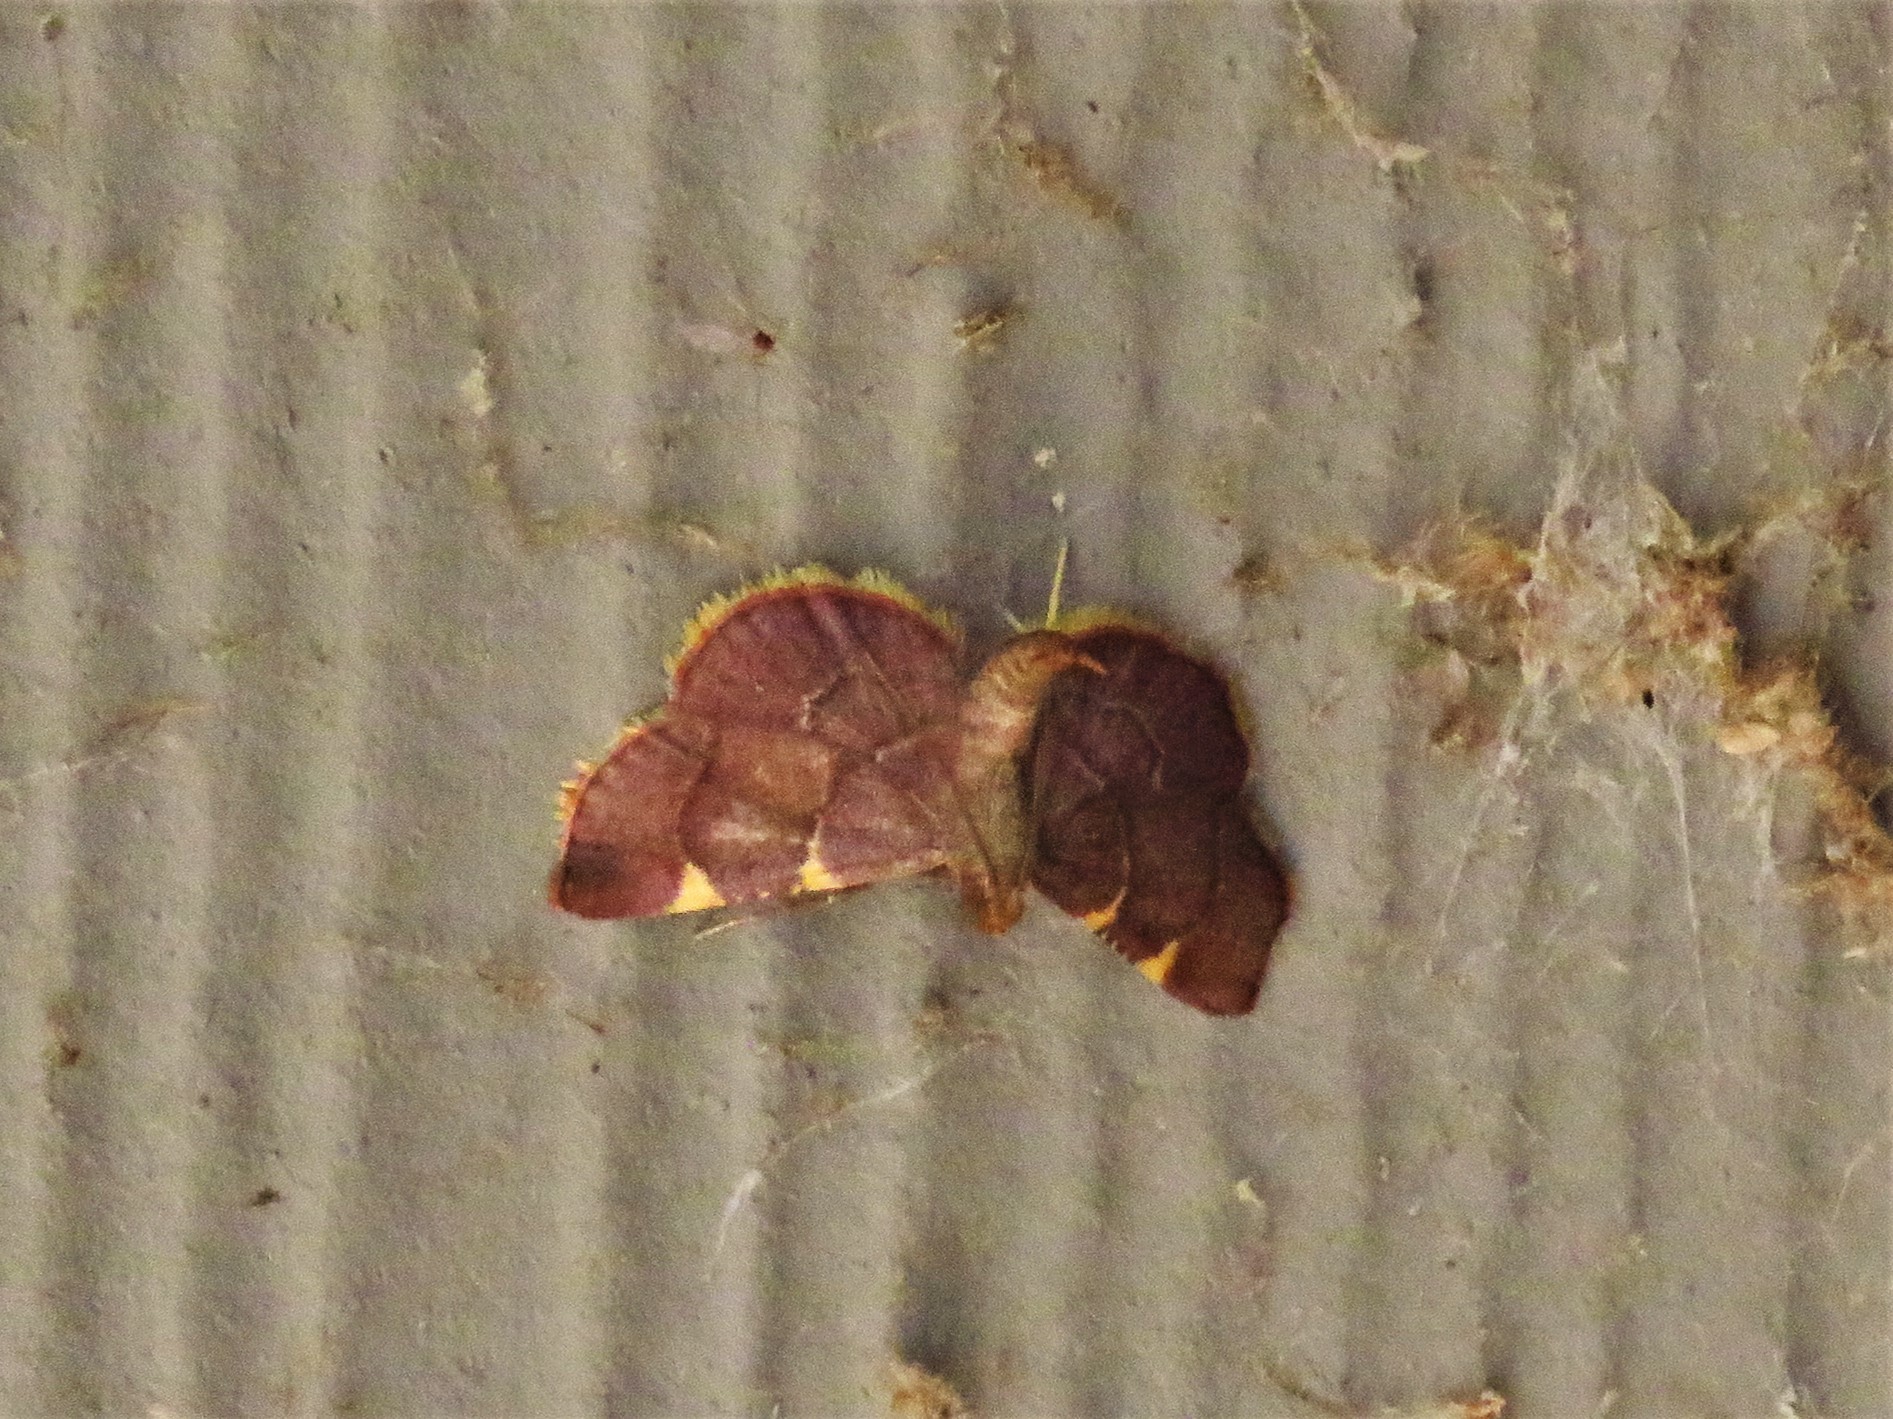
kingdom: Animalia
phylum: Arthropoda
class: Insecta
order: Lepidoptera
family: Pyralidae
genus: Hypsopygia
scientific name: Hypsopygia olinalis
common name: Yellow-fringed dolichomia moth
